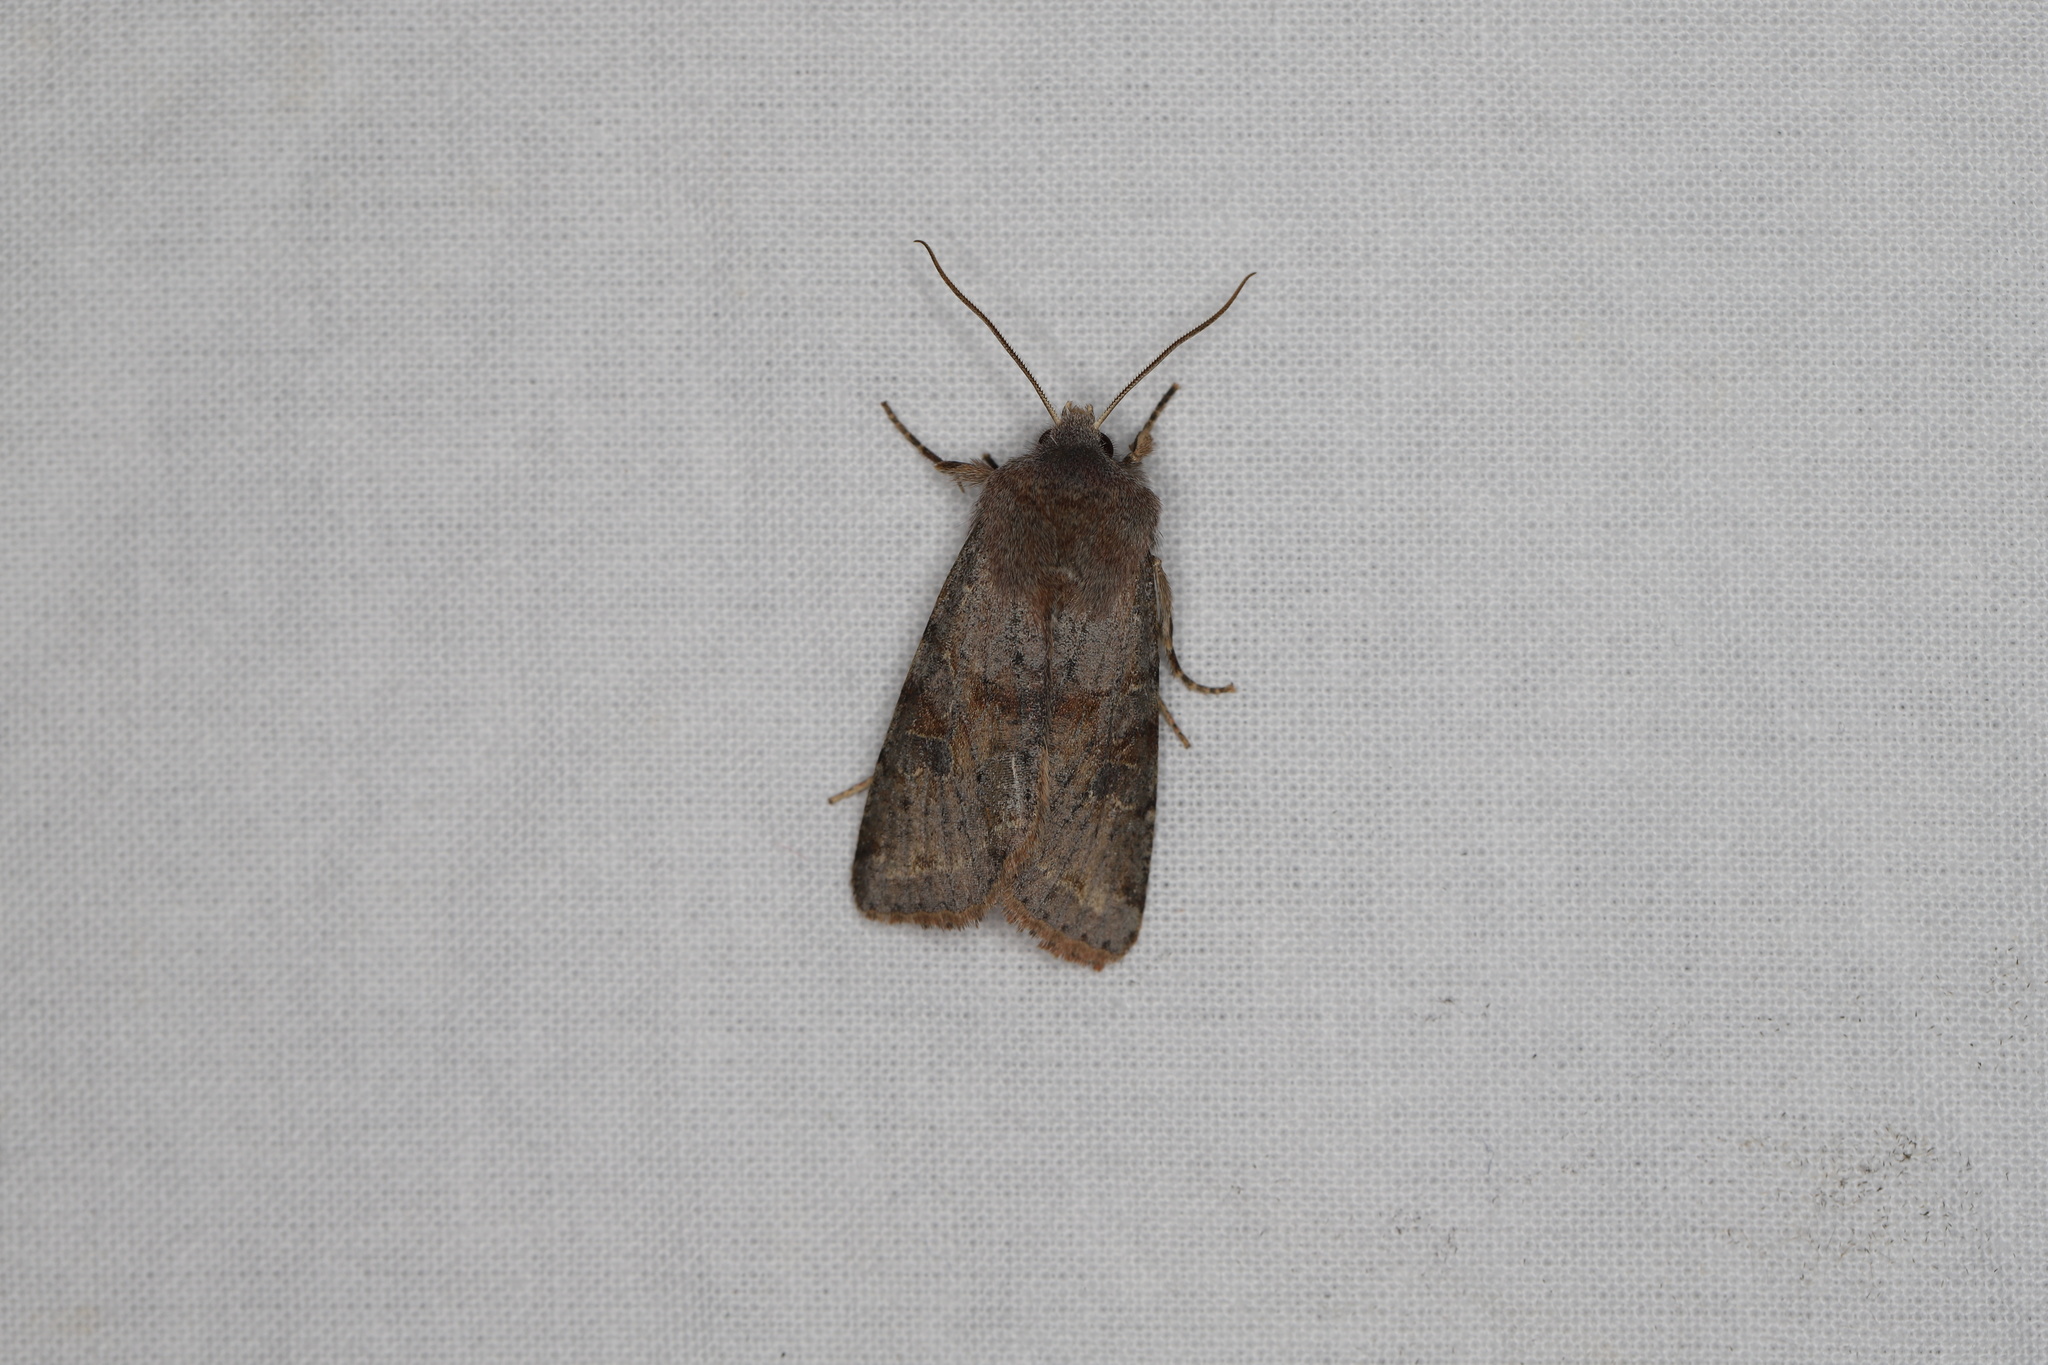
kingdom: Animalia
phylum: Arthropoda
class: Insecta
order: Lepidoptera
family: Noctuidae
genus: Orthosia
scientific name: Orthosia incerta
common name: Clouded drab
